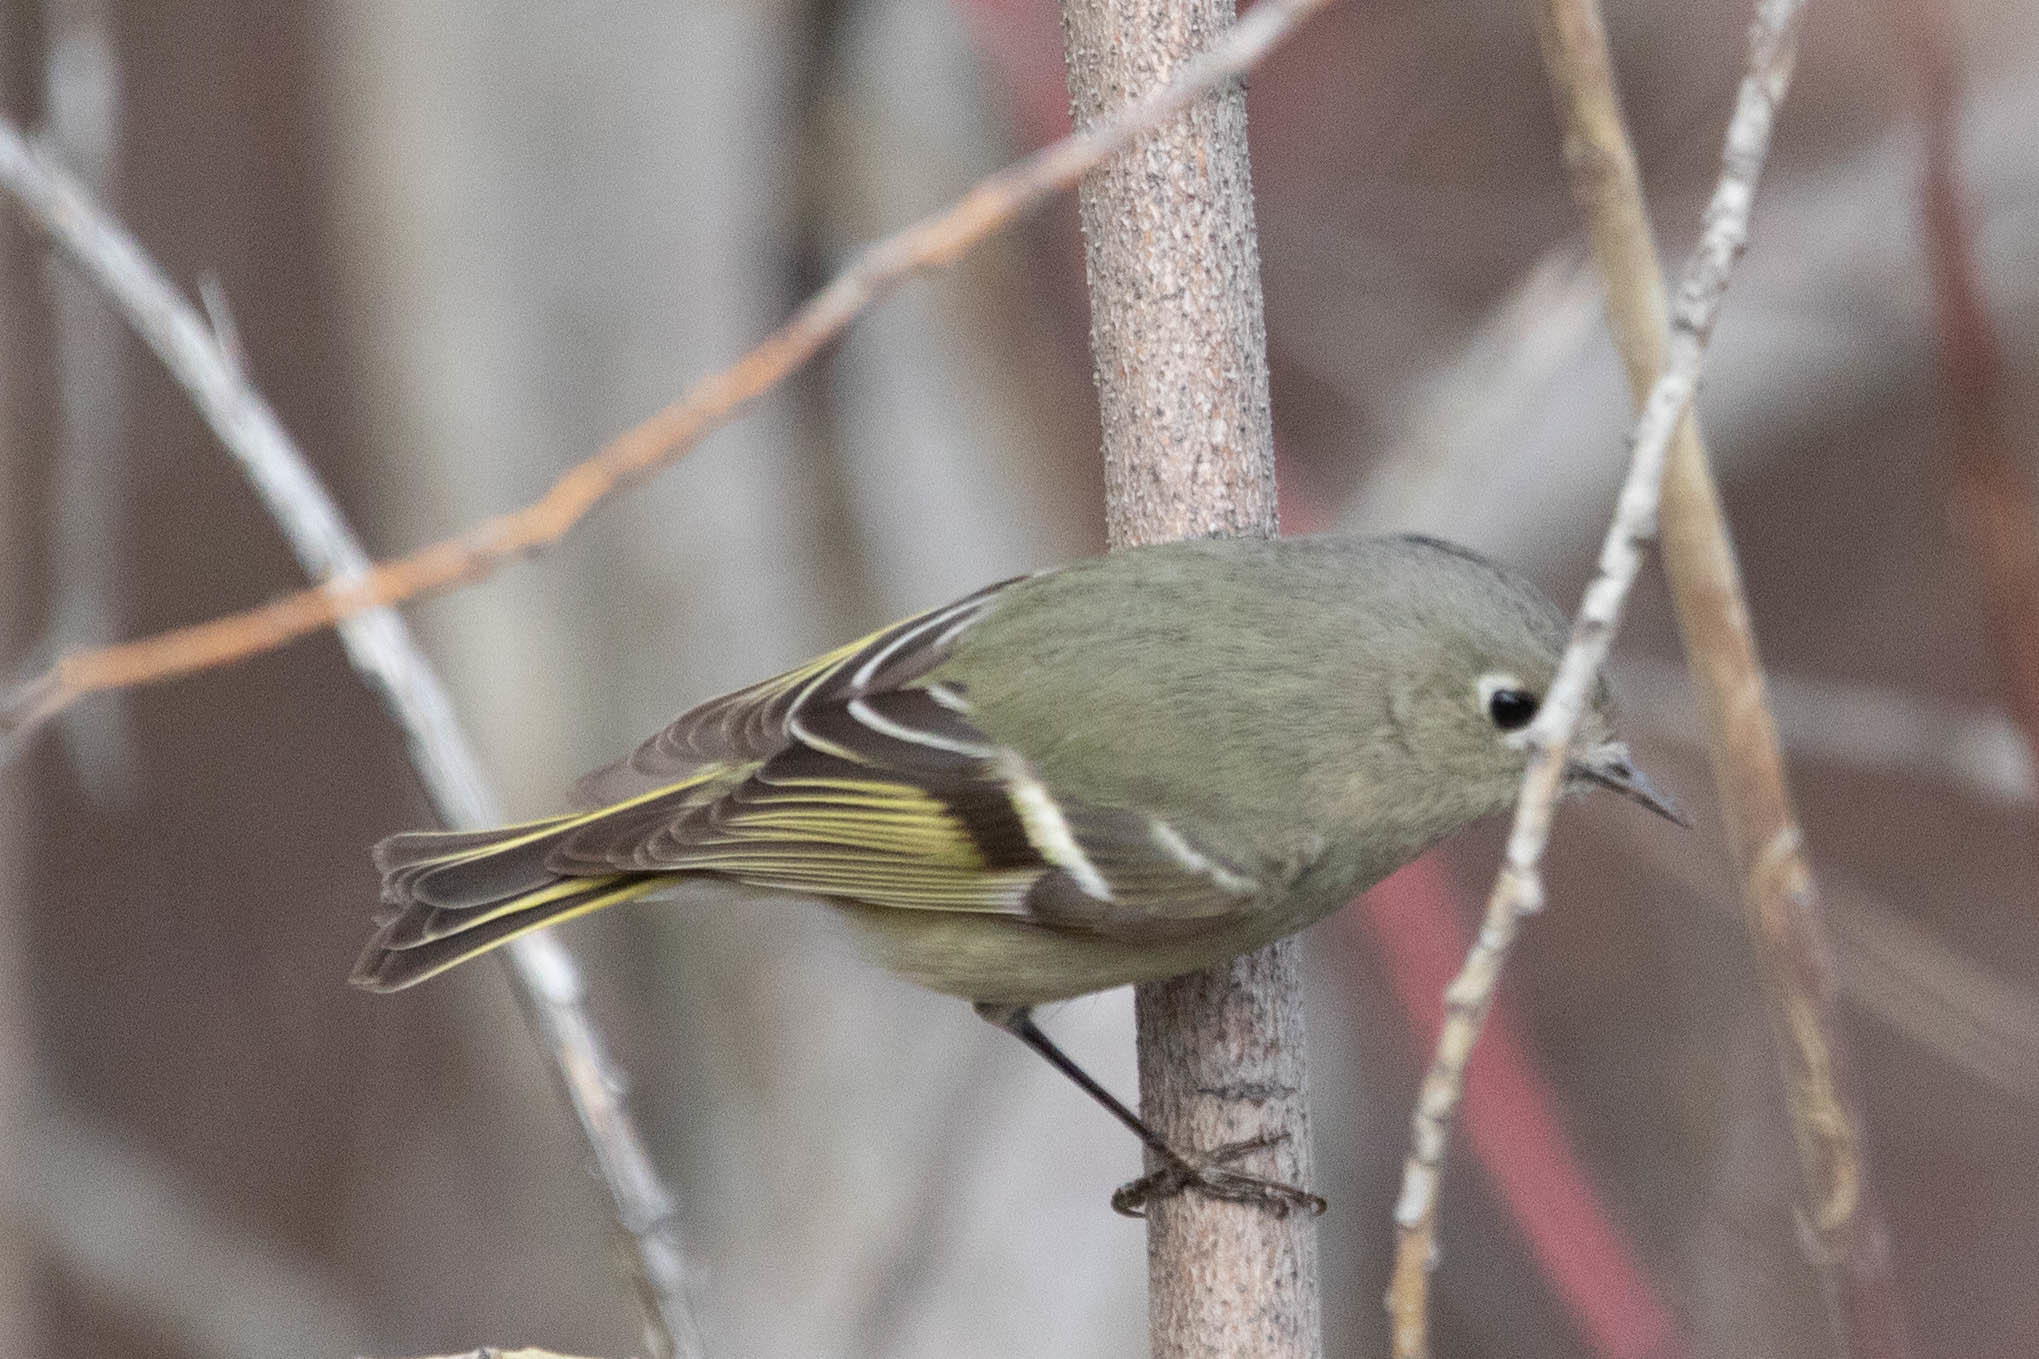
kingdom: Animalia
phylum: Chordata
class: Aves
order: Passeriformes
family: Regulidae
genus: Regulus
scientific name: Regulus calendula
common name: Ruby-crowned kinglet
